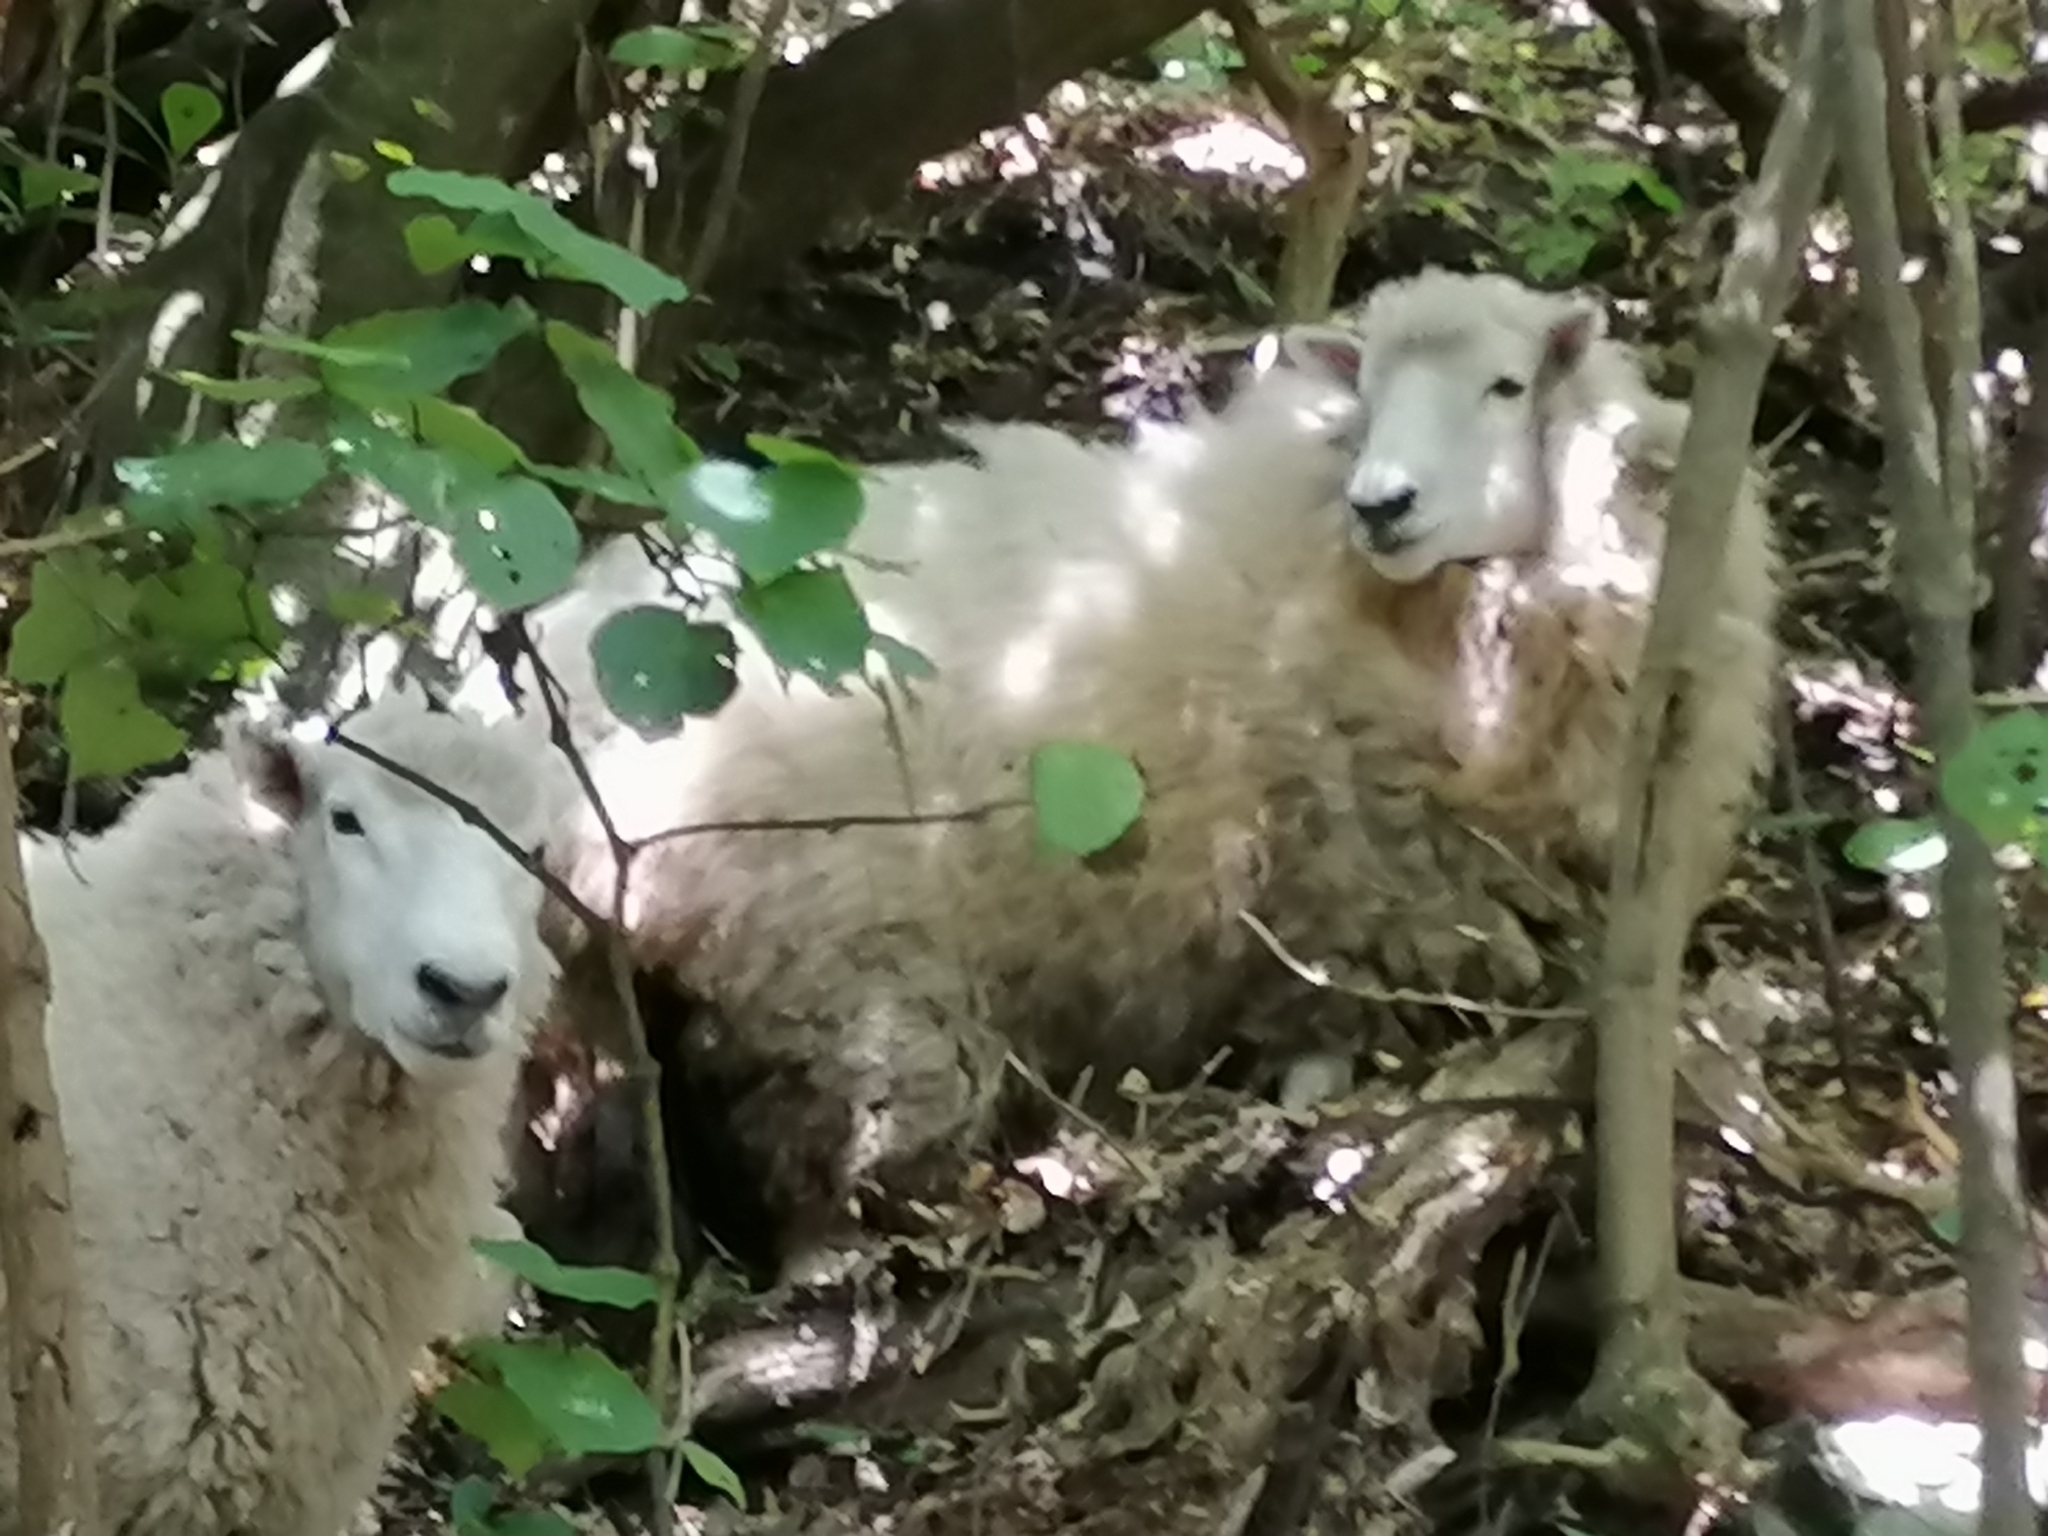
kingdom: Animalia
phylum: Chordata
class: Mammalia
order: Artiodactyla
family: Bovidae
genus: Ovis
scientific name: Ovis aries
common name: Domestic sheep
